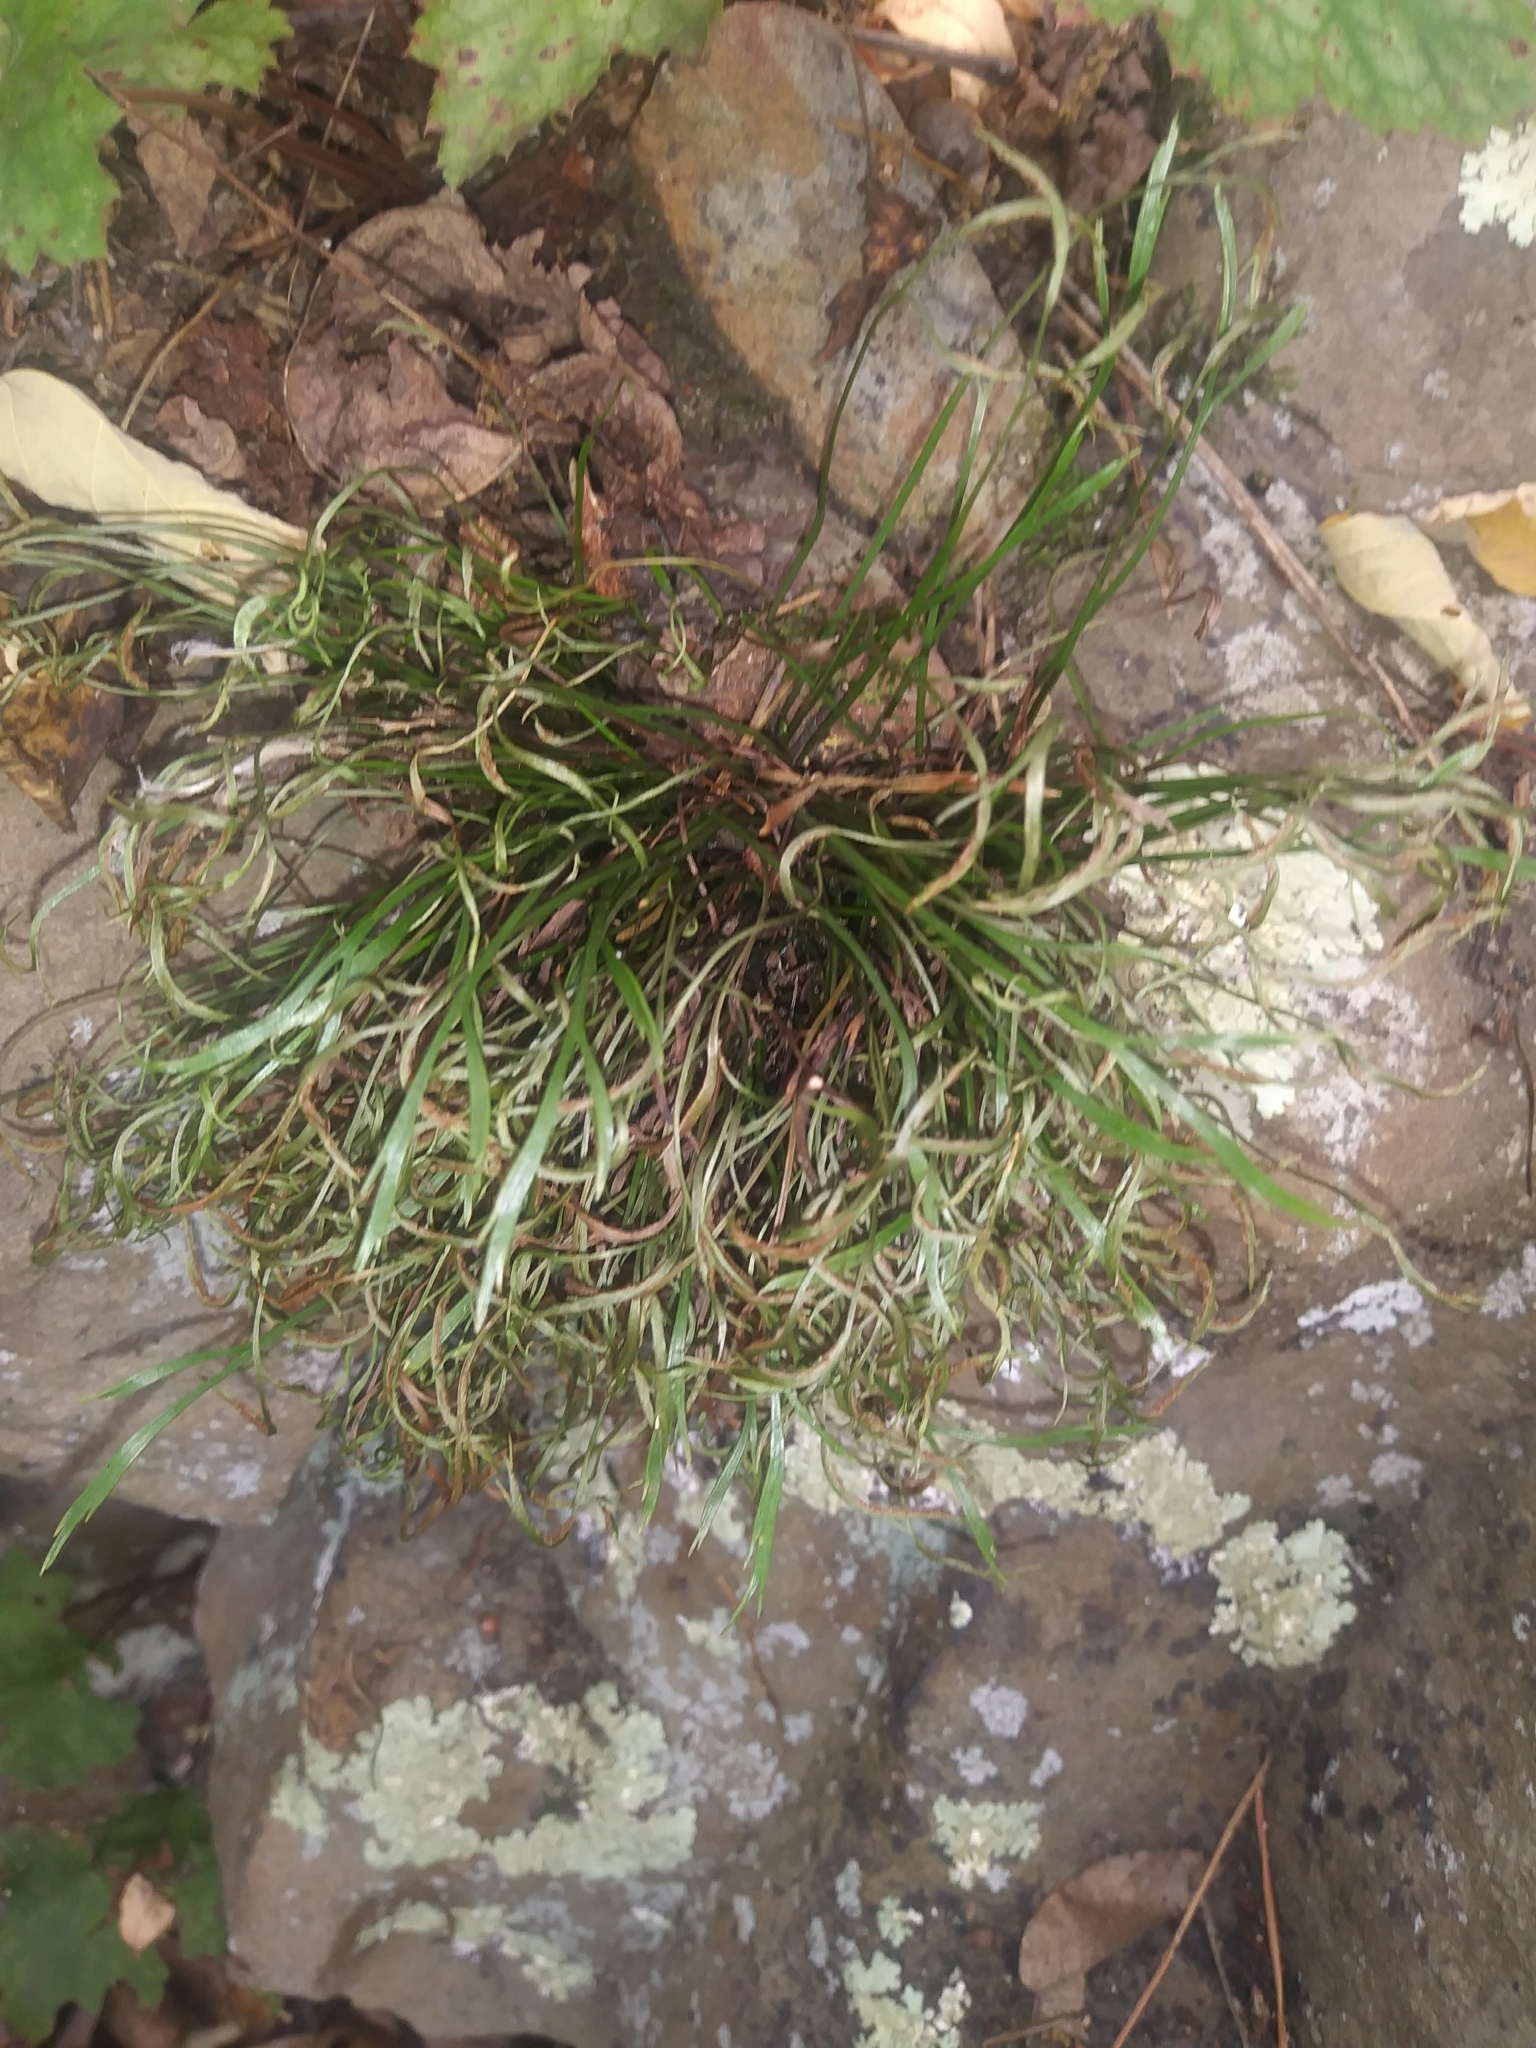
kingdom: Plantae
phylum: Tracheophyta
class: Polypodiopsida
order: Polypodiales
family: Aspleniaceae
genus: Asplenium
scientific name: Asplenium septentrionale
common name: Forked spleenwort
